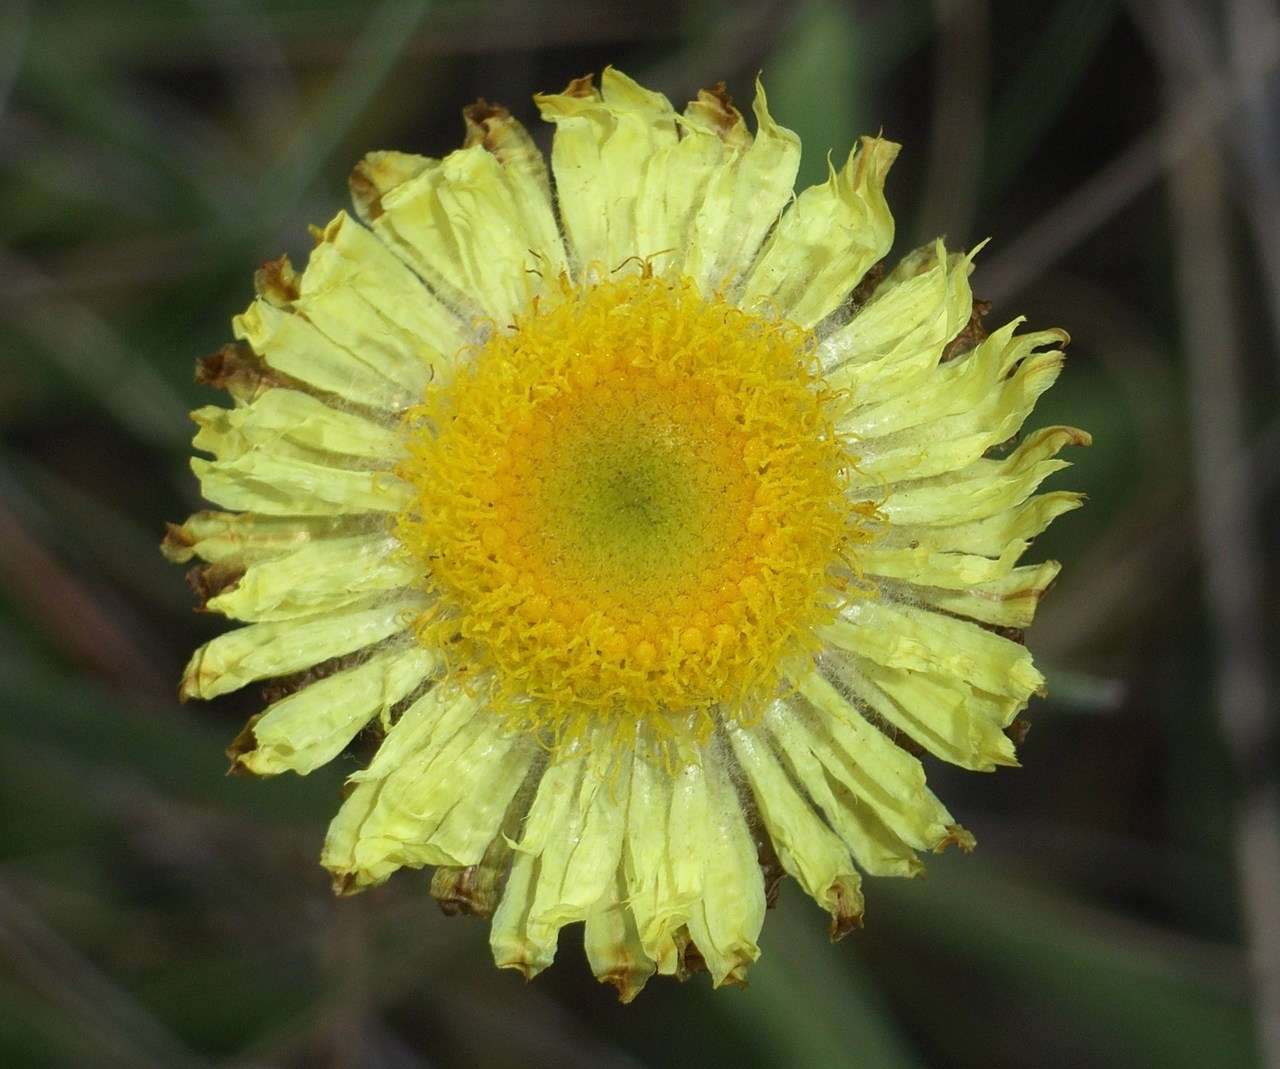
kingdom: Plantae
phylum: Tracheophyta
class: Magnoliopsida
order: Asterales
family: Asteraceae
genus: Coronidium
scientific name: Coronidium scorpioides
